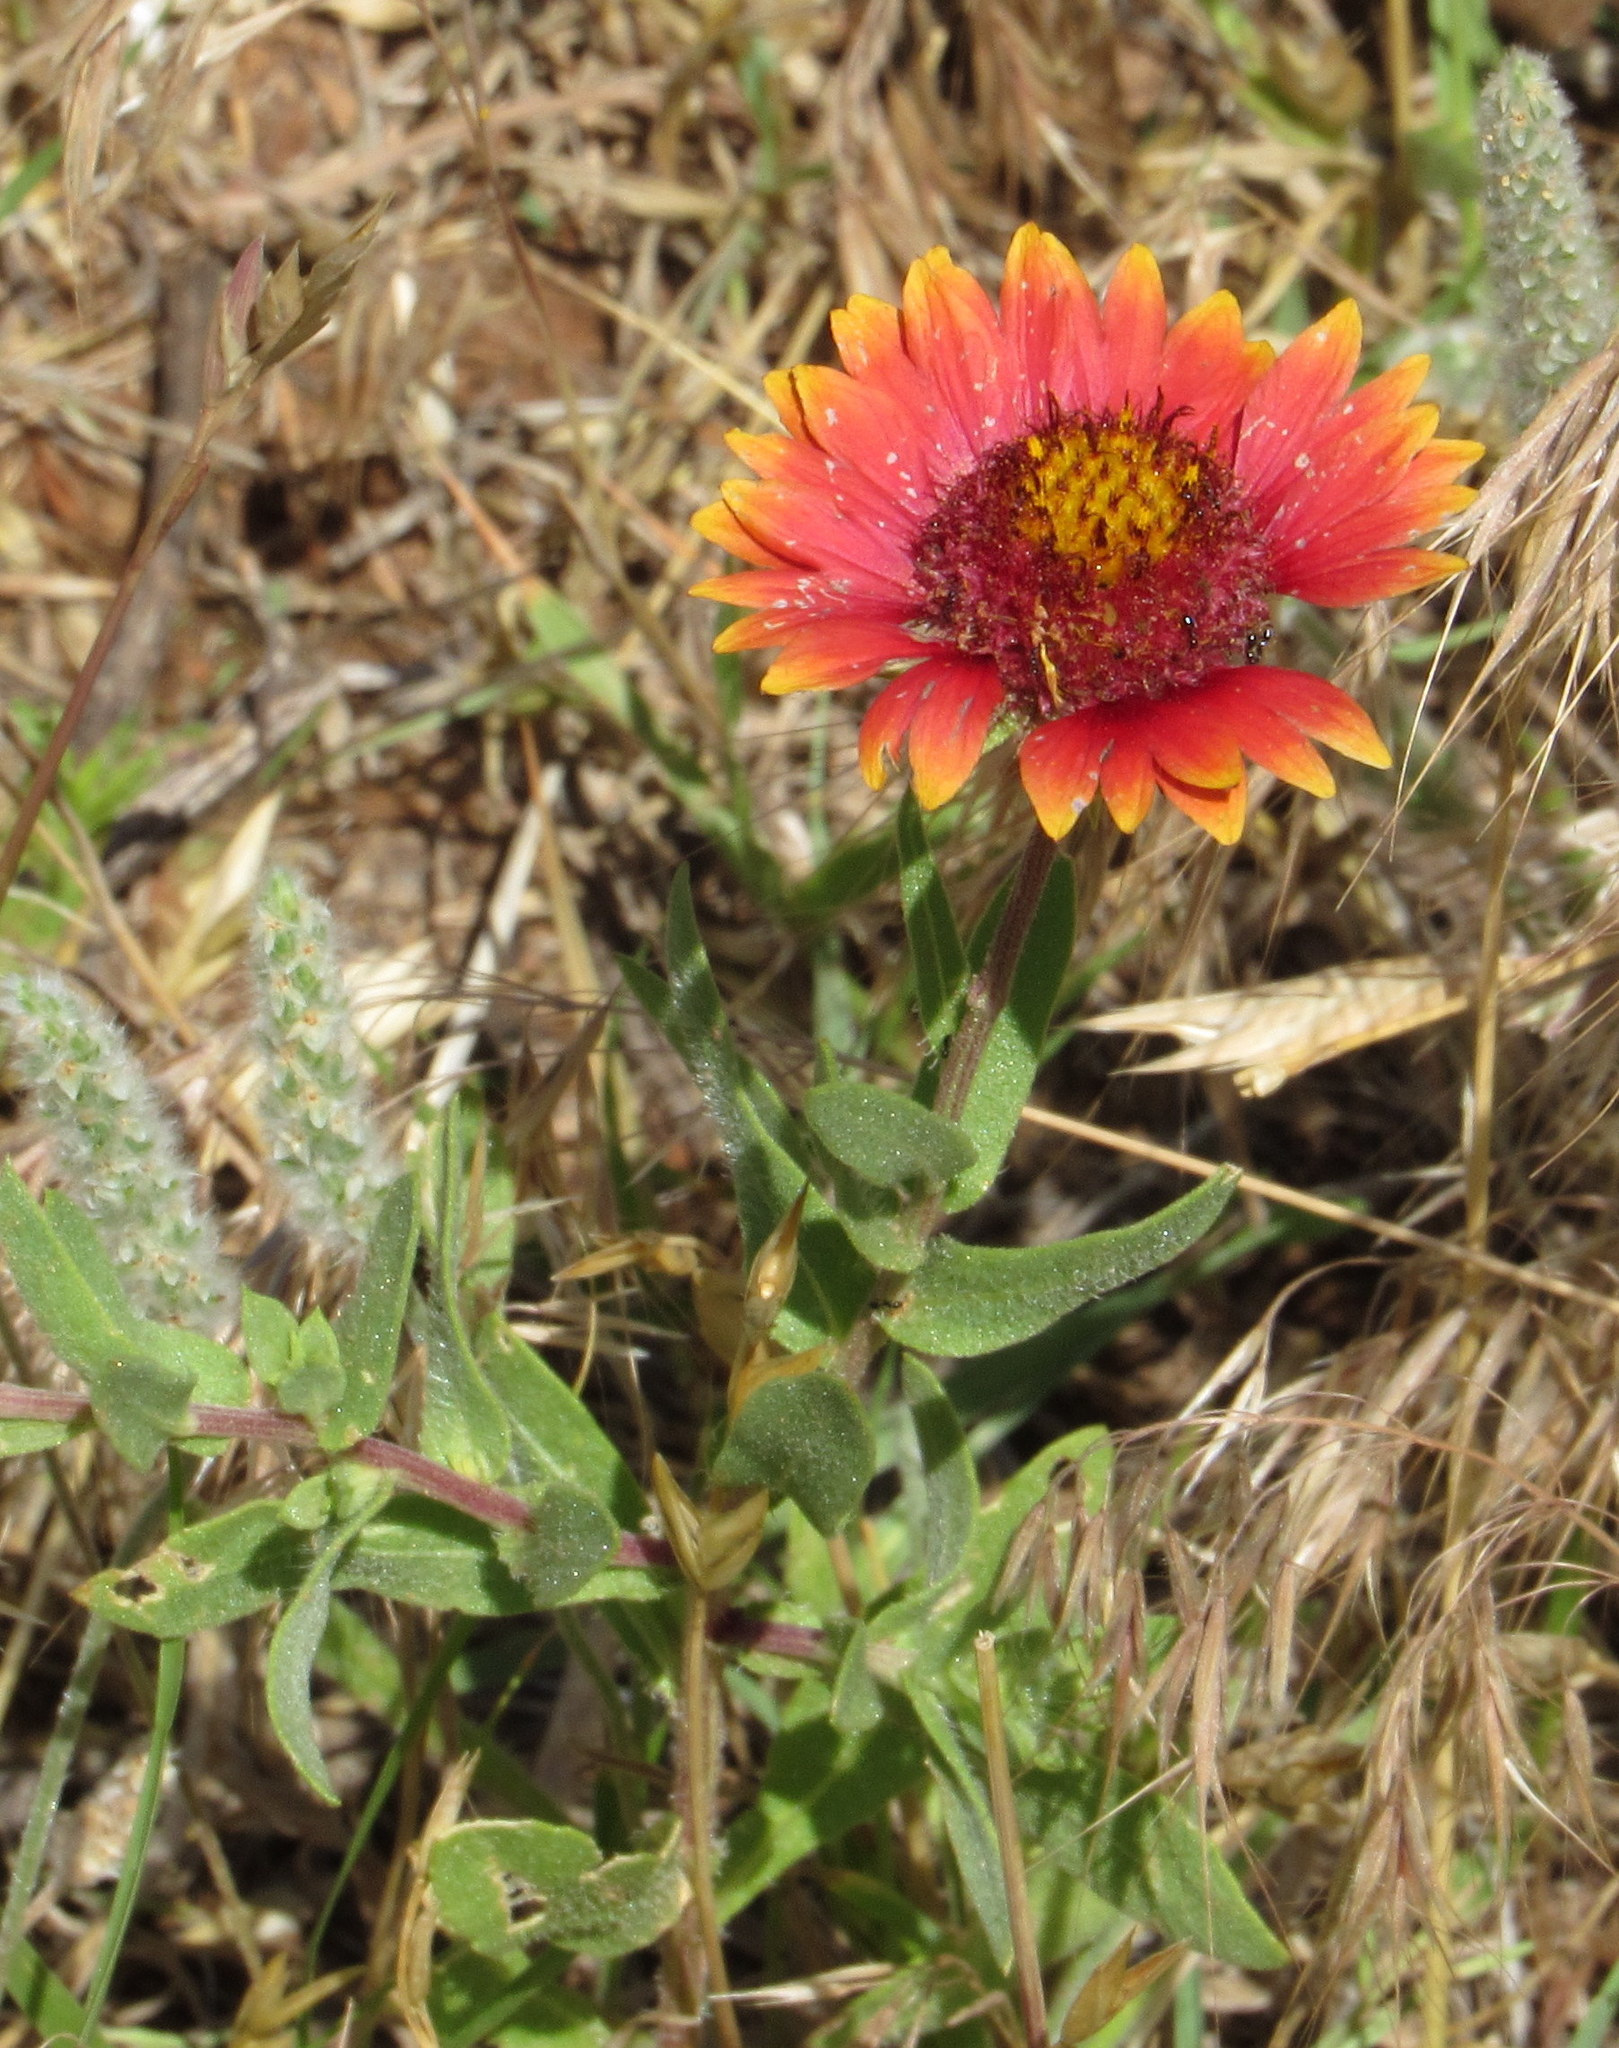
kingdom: Plantae
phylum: Tracheophyta
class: Magnoliopsida
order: Asterales
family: Asteraceae
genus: Gaillardia
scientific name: Gaillardia pulchella
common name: Firewheel
